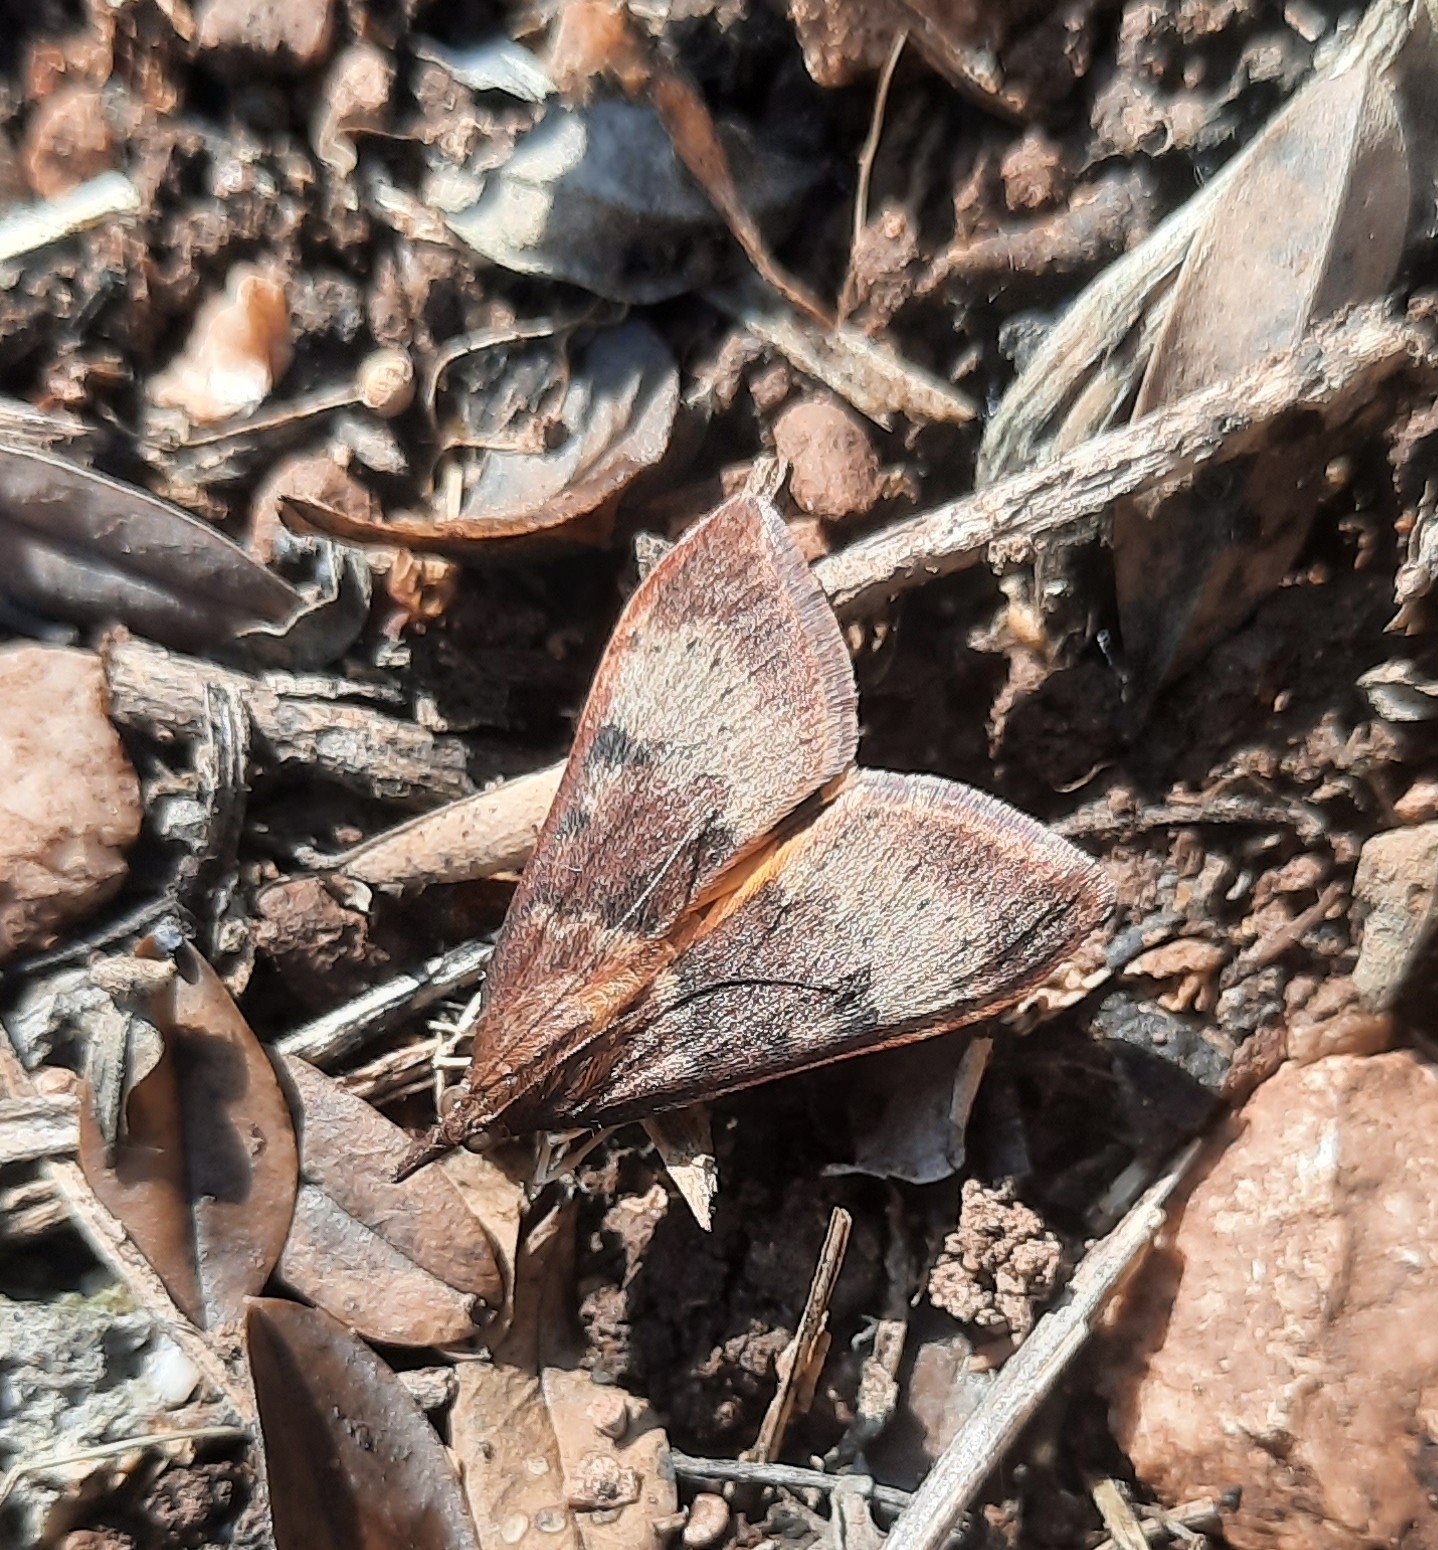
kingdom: Animalia
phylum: Arthropoda
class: Insecta
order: Lepidoptera
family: Crambidae
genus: Uresiphita
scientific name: Uresiphita gilvata
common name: Yellow-underwing pearl
